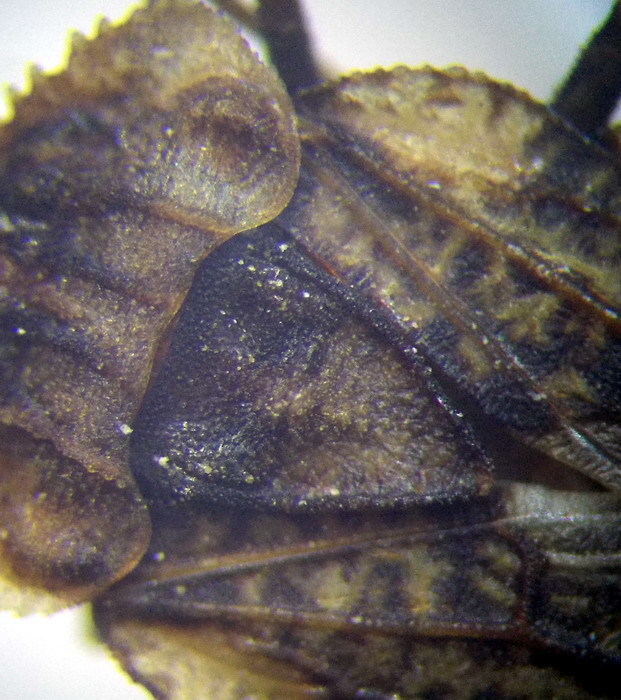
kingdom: Animalia
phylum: Arthropoda
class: Insecta
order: Hemiptera
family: Aradidae
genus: Aradus
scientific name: Aradus hieroglyphicus
